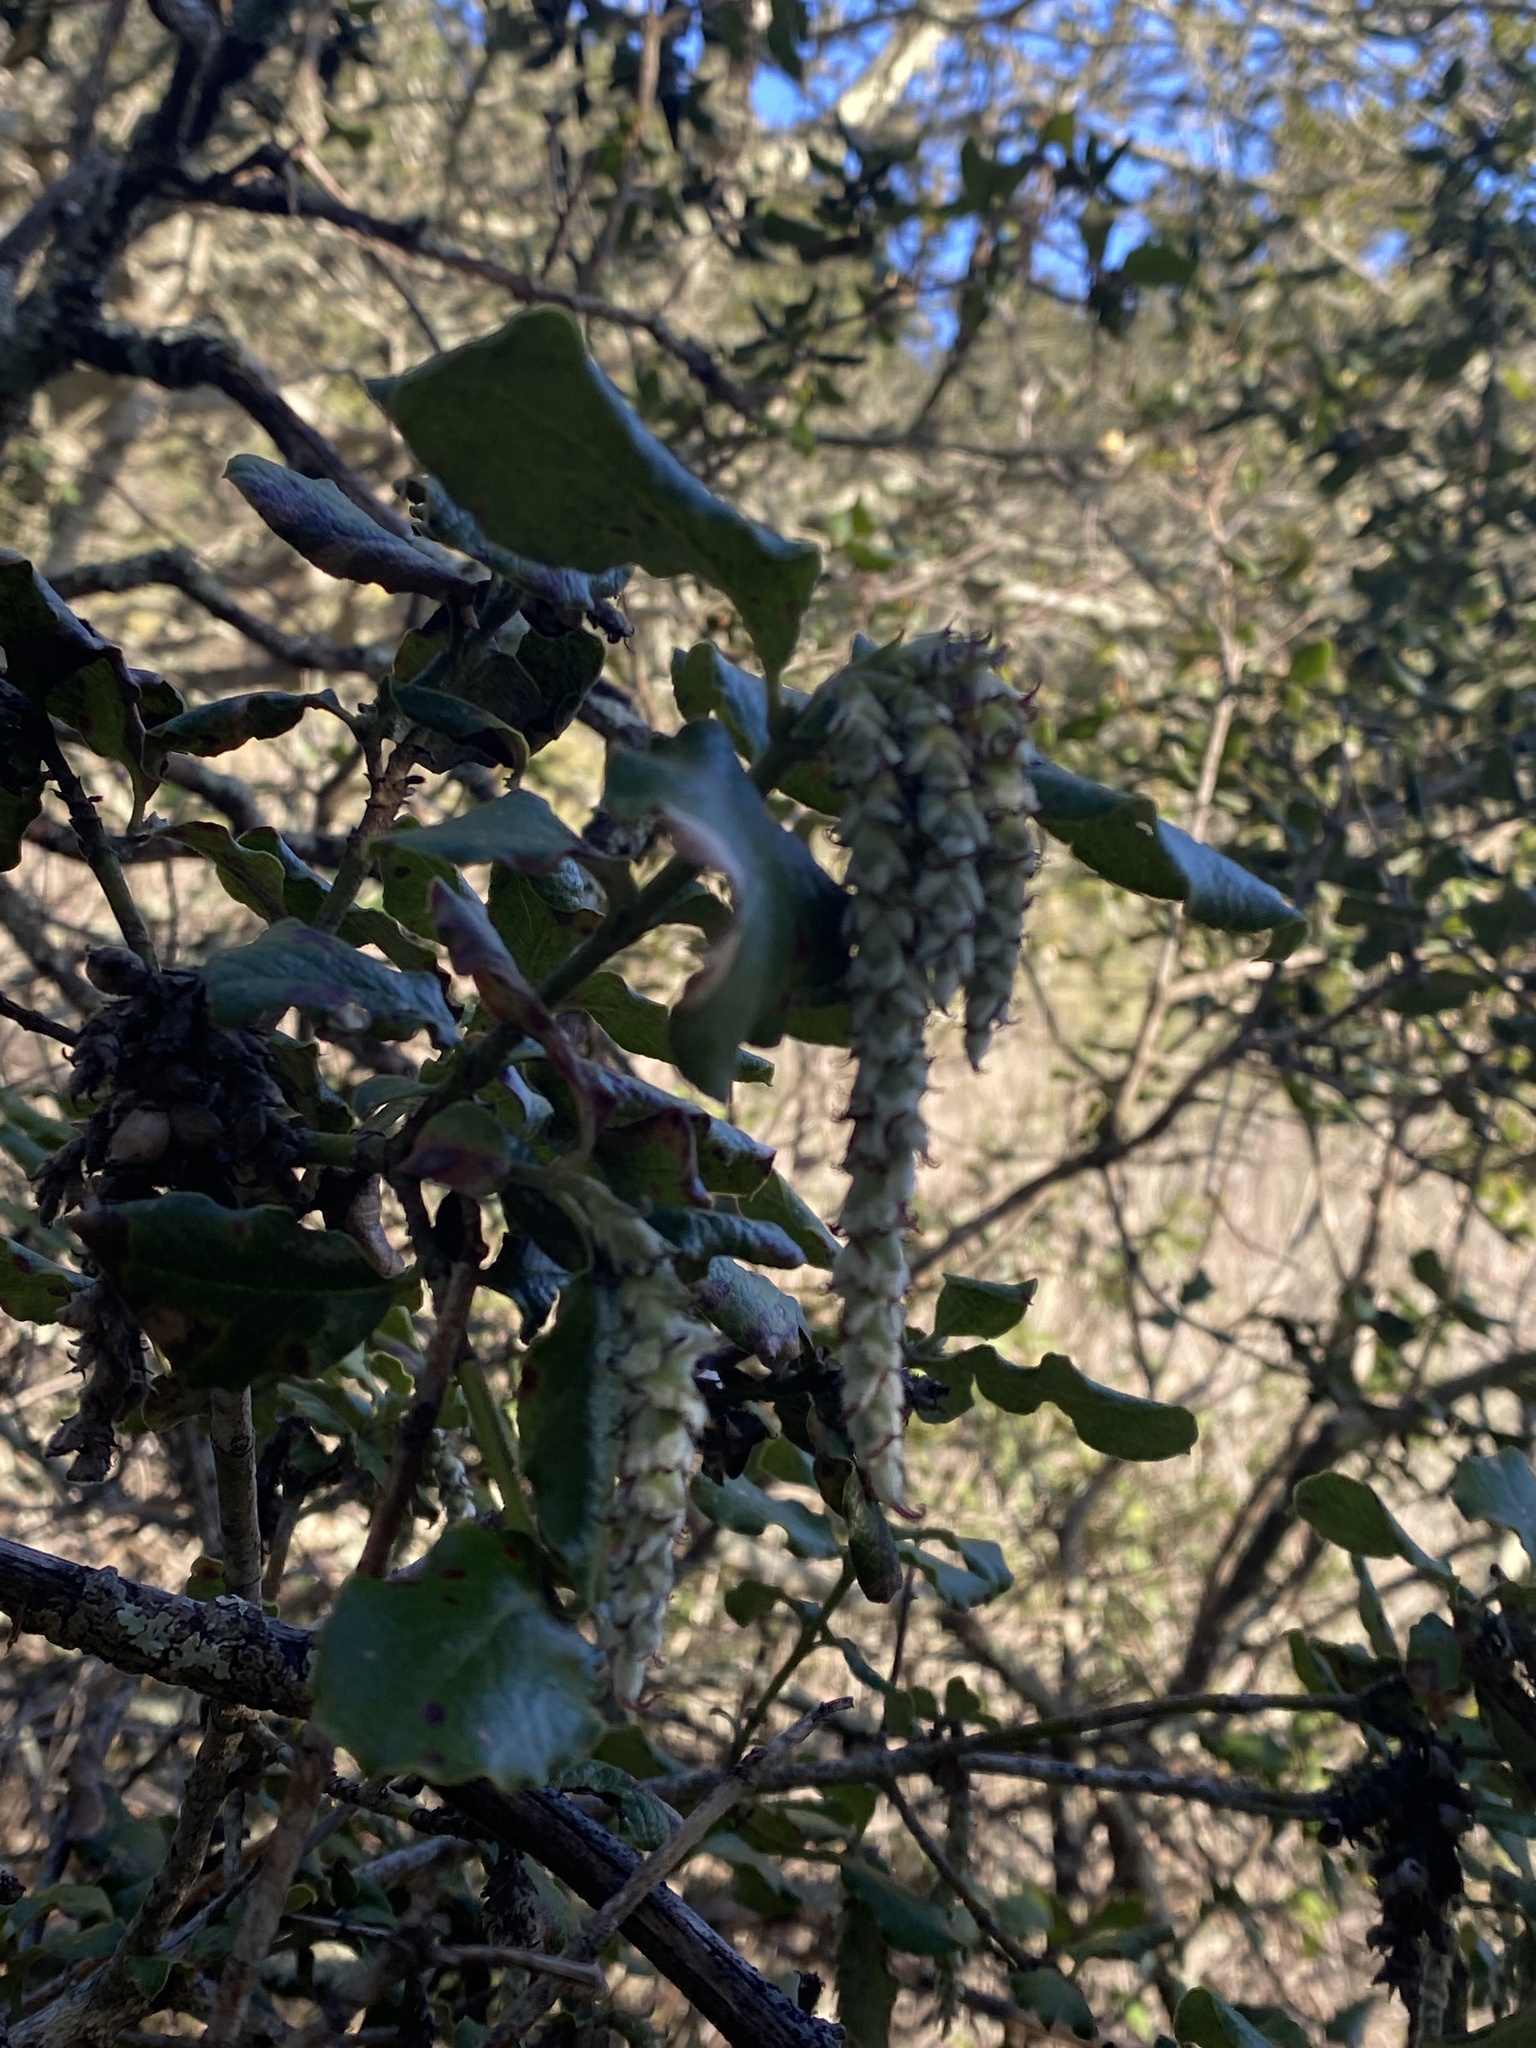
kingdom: Plantae
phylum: Tracheophyta
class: Magnoliopsida
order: Garryales
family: Garryaceae
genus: Garrya
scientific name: Garrya elliptica
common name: Silk-tassel
